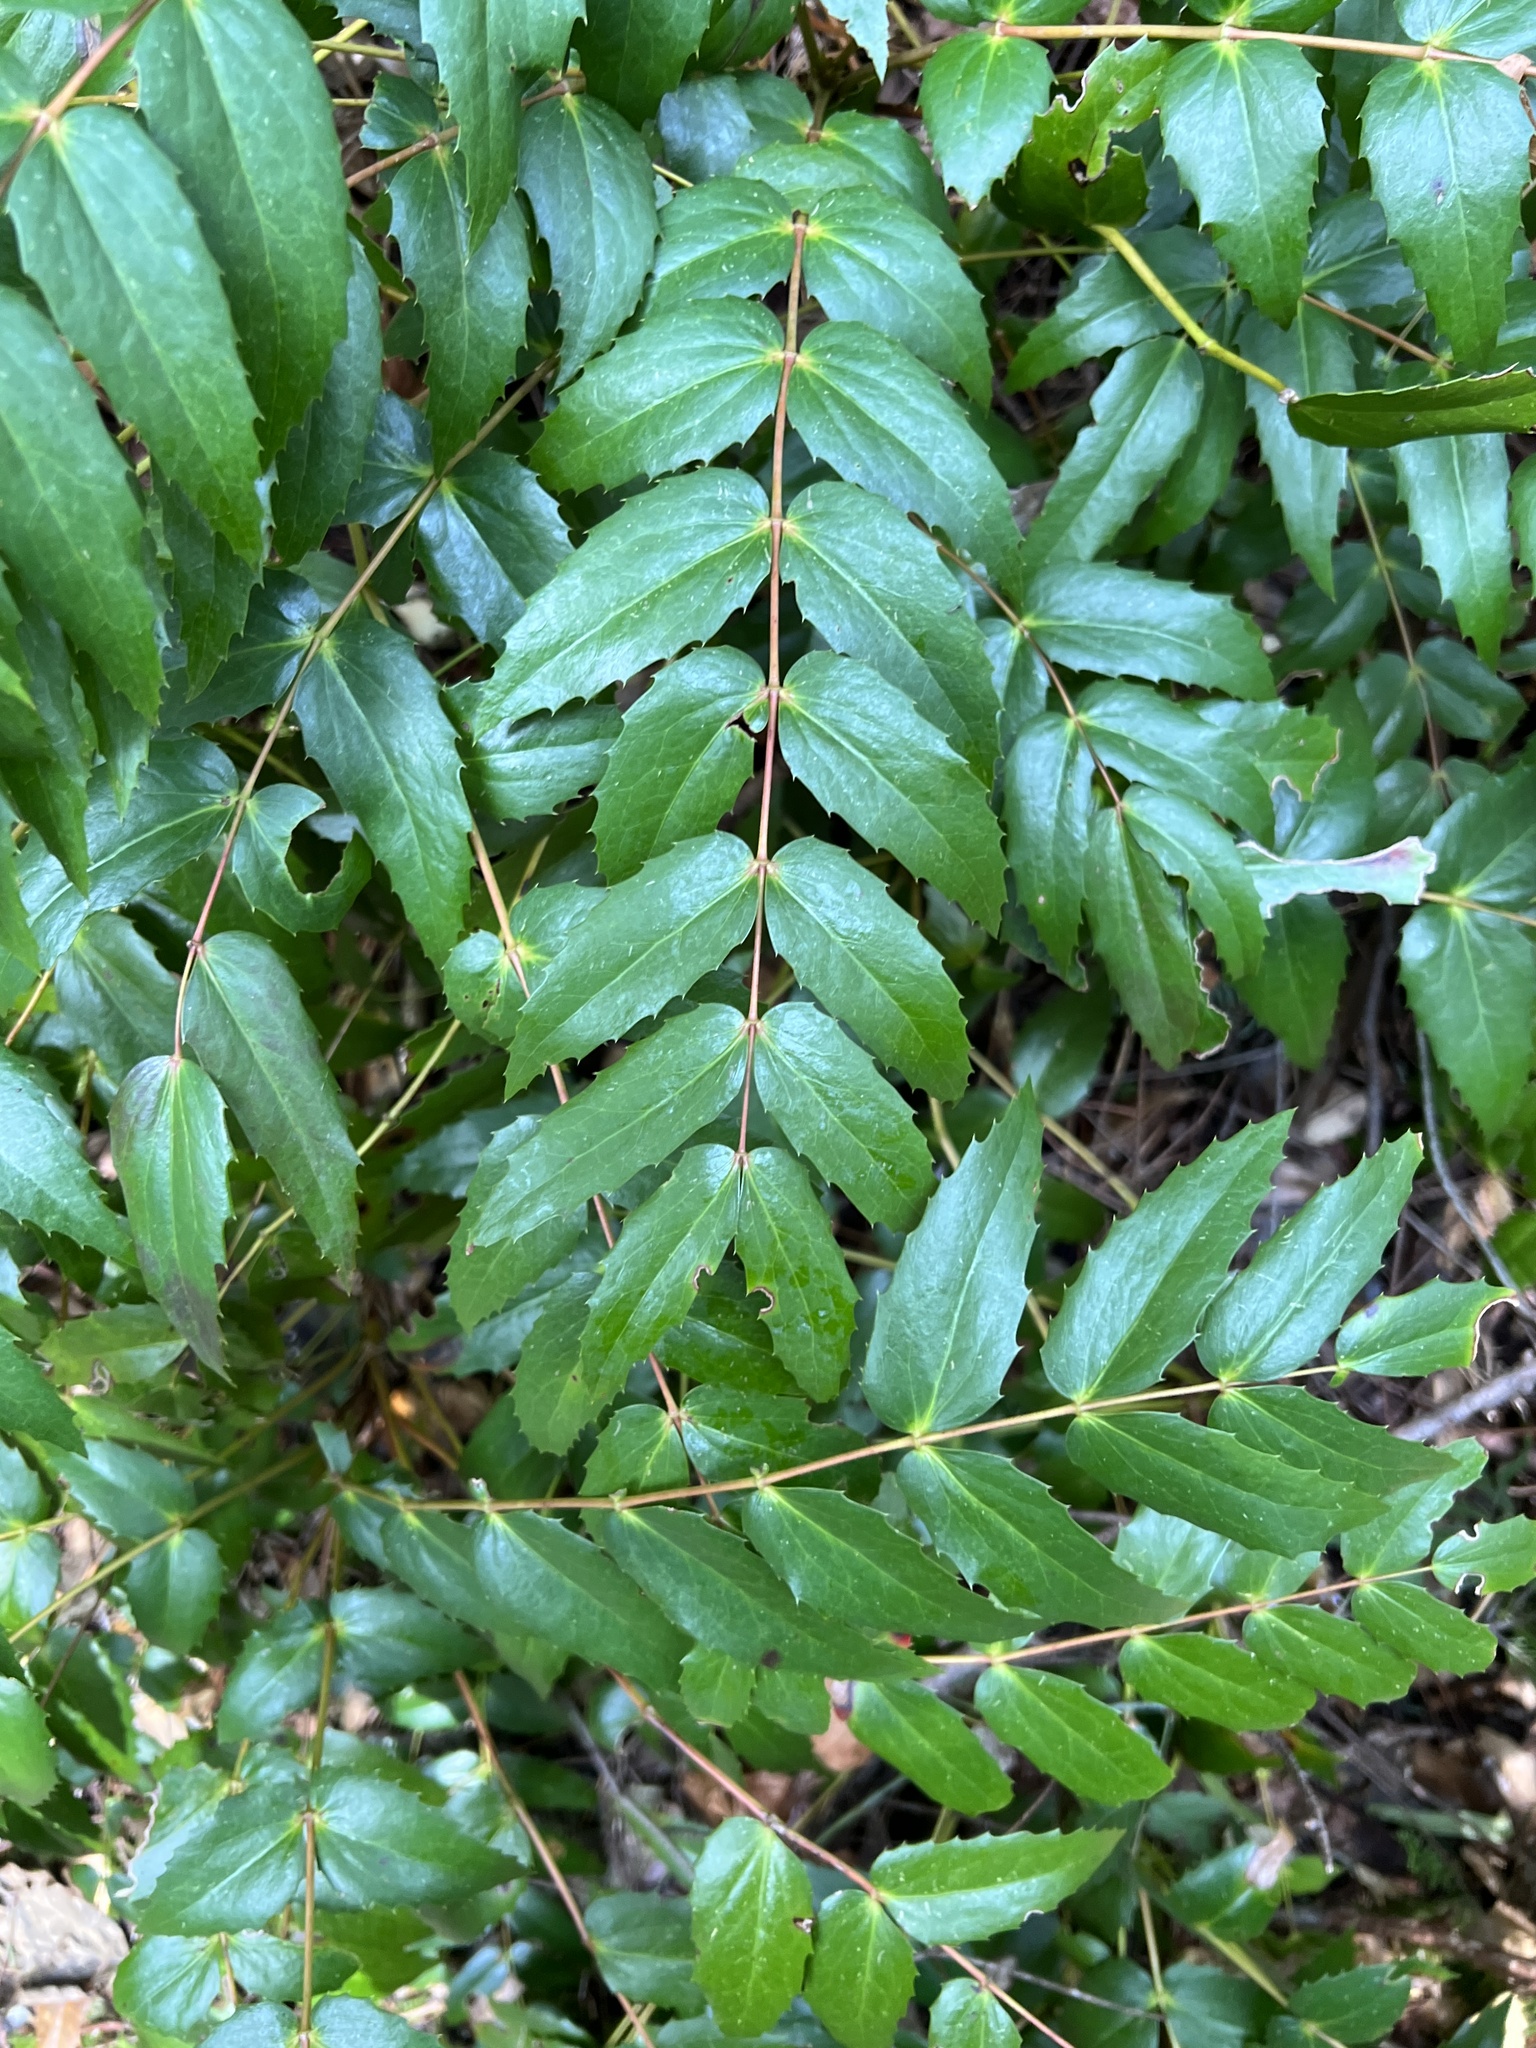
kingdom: Plantae
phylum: Tracheophyta
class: Magnoliopsida
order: Ranunculales
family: Berberidaceae
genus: Mahonia
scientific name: Mahonia nervosa
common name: Cascade oregon-grape
